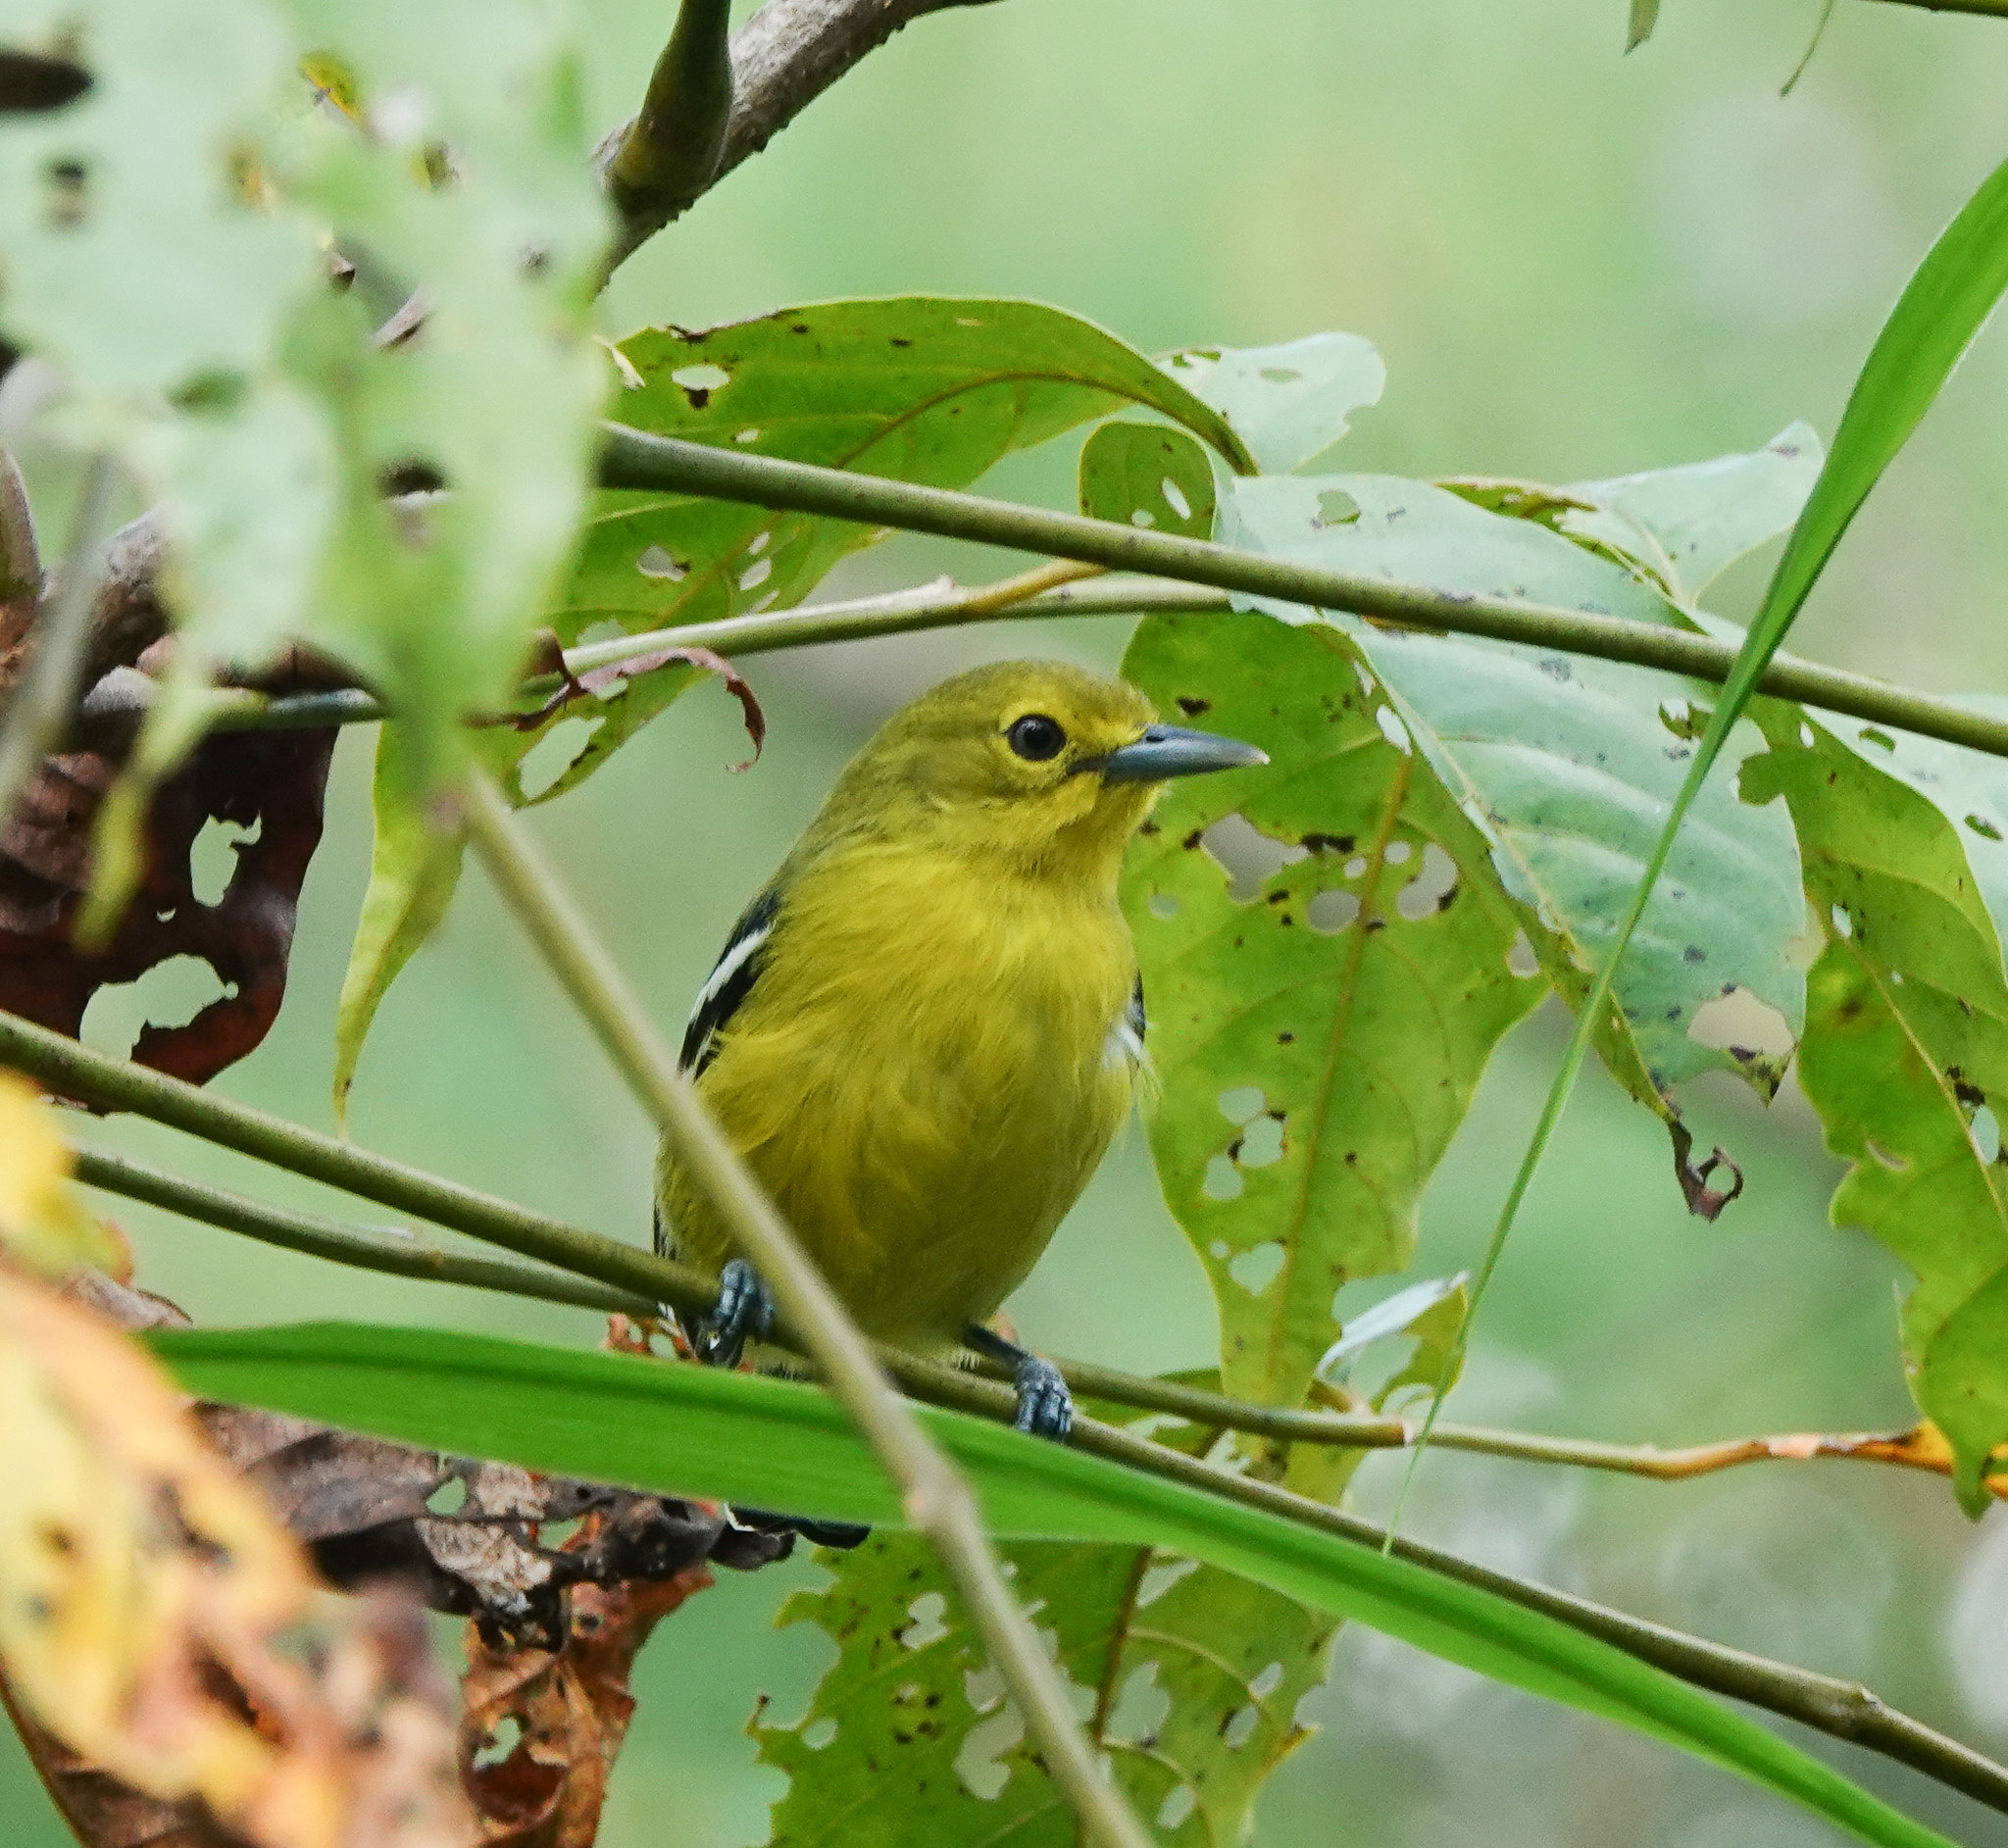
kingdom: Animalia
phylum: Chordata
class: Aves
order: Passeriformes
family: Aegithinidae
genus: Aegithina
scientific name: Aegithina tiphia
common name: Common iora
